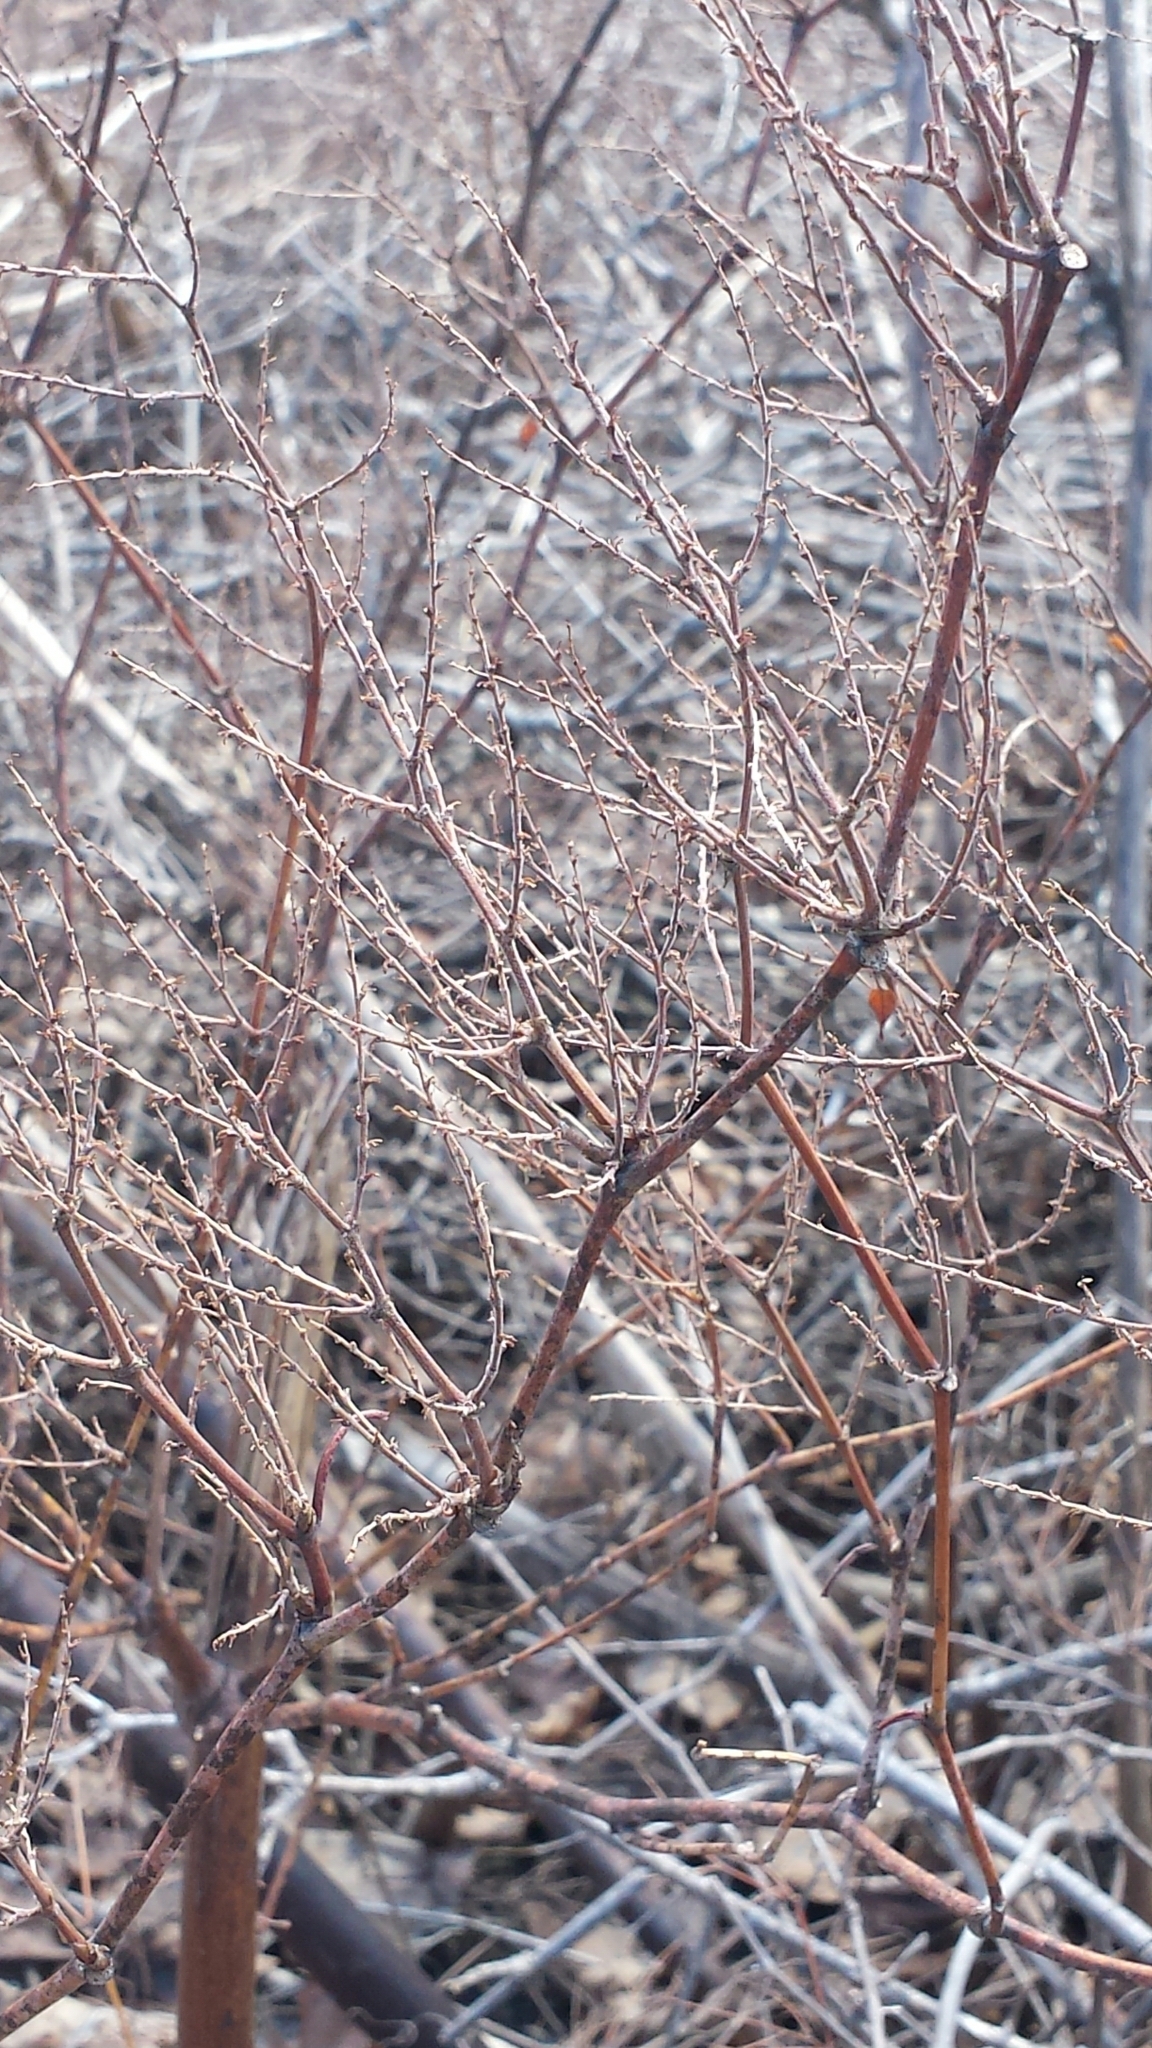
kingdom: Plantae
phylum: Tracheophyta
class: Magnoliopsida
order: Caryophyllales
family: Polygonaceae
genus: Reynoutria
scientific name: Reynoutria japonica
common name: Japanese knotweed
